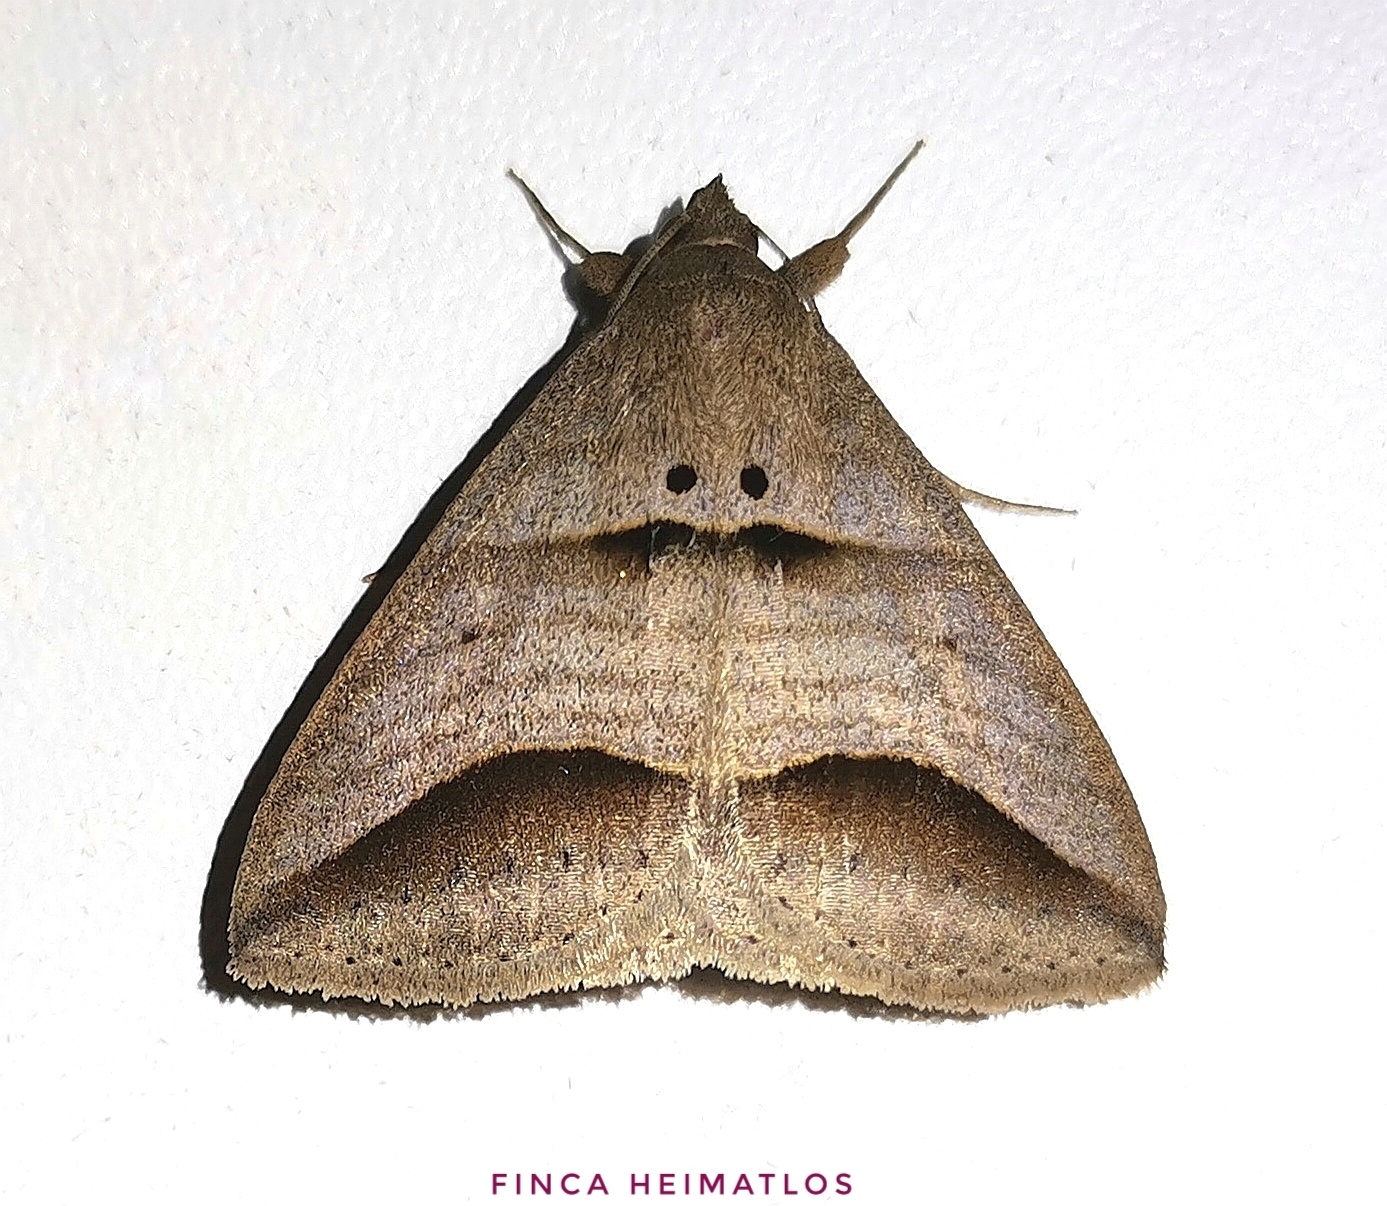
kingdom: Animalia
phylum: Arthropoda
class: Insecta
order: Lepidoptera
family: Erebidae
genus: Perasia
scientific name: Perasia ora
